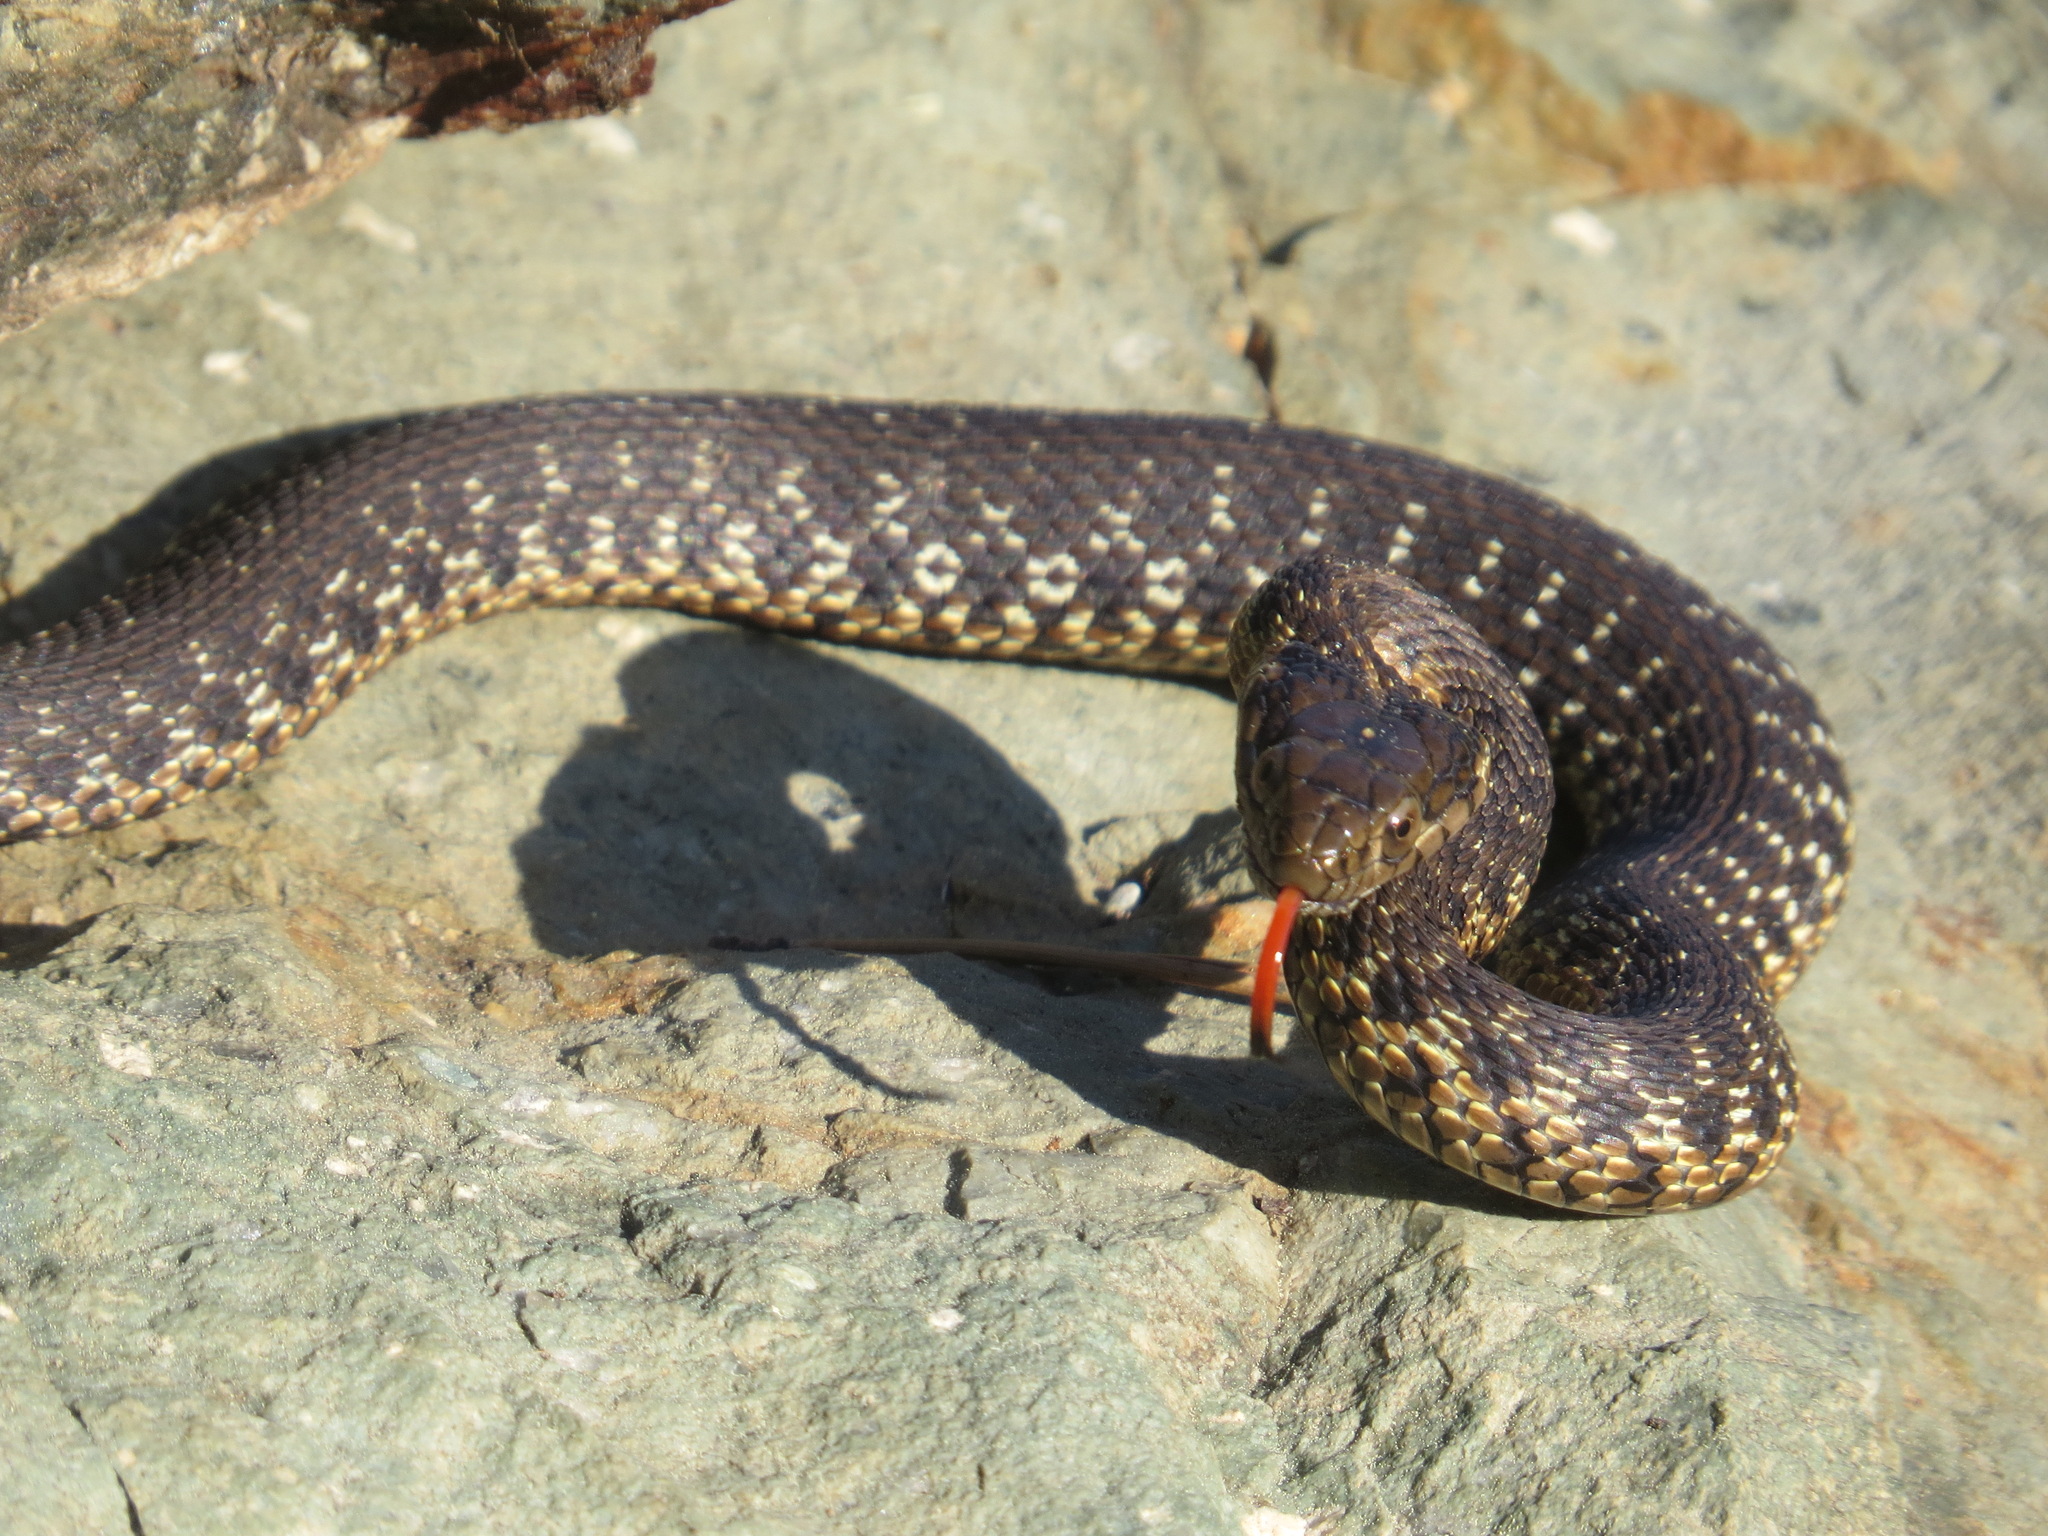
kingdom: Animalia
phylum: Chordata
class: Squamata
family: Colubridae
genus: Thamnophis
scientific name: Thamnophis couchii
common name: Western aquatic garter snake
